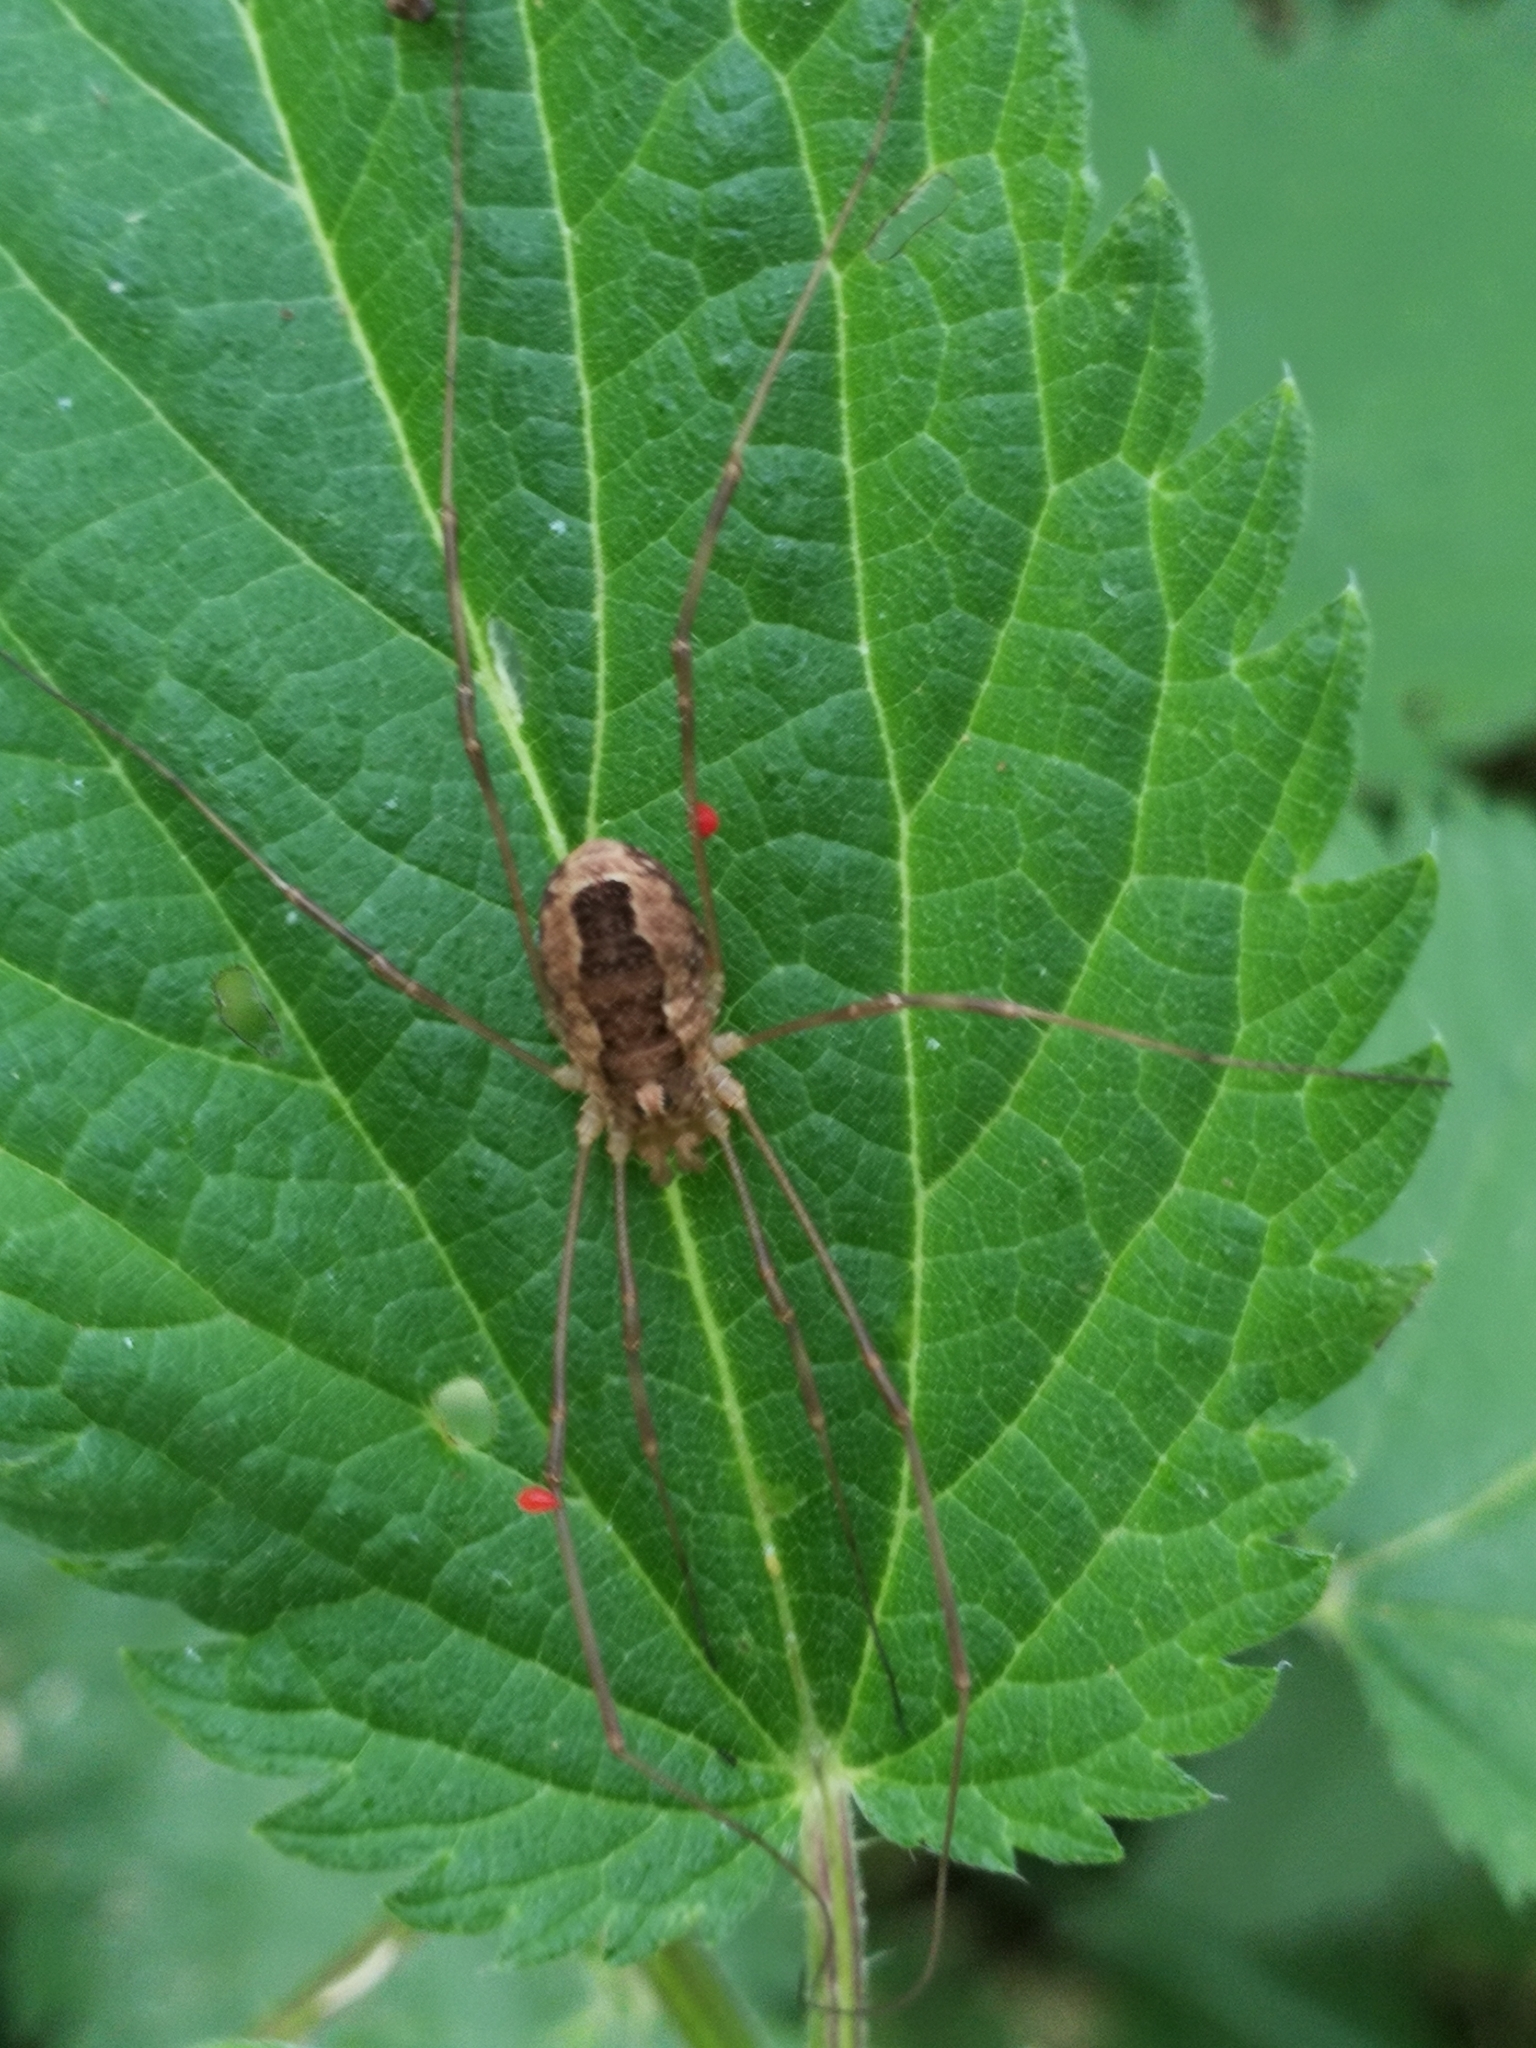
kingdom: Animalia
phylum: Arthropoda
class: Arachnida
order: Opiliones
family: Phalangiidae
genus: Rilaena
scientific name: Rilaena triangularis
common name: Spring harvestman
